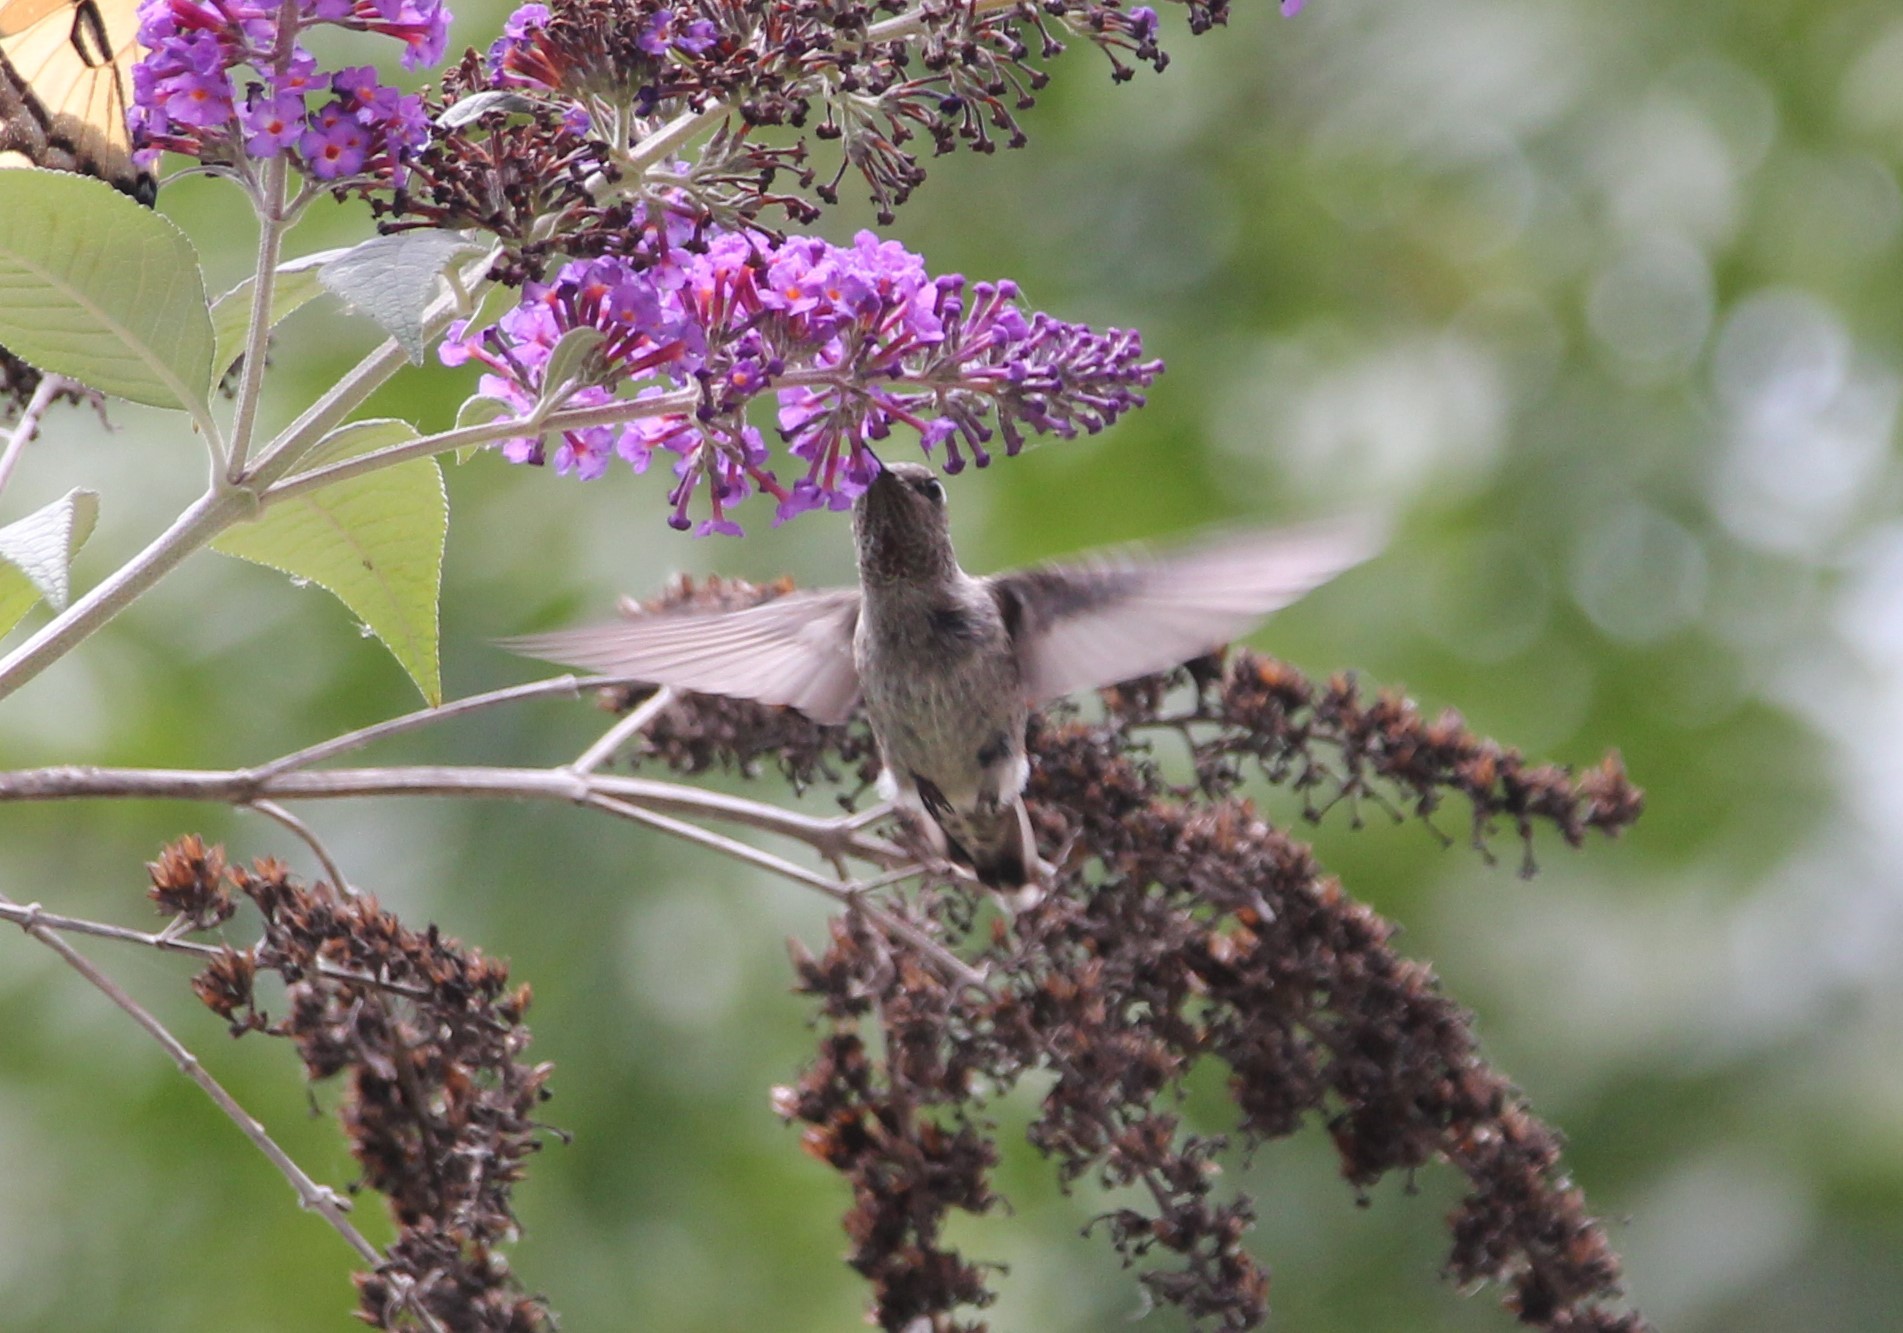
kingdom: Animalia
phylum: Chordata
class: Aves
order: Apodiformes
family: Trochilidae
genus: Calypte
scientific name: Calypte anna
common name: Anna's hummingbird
